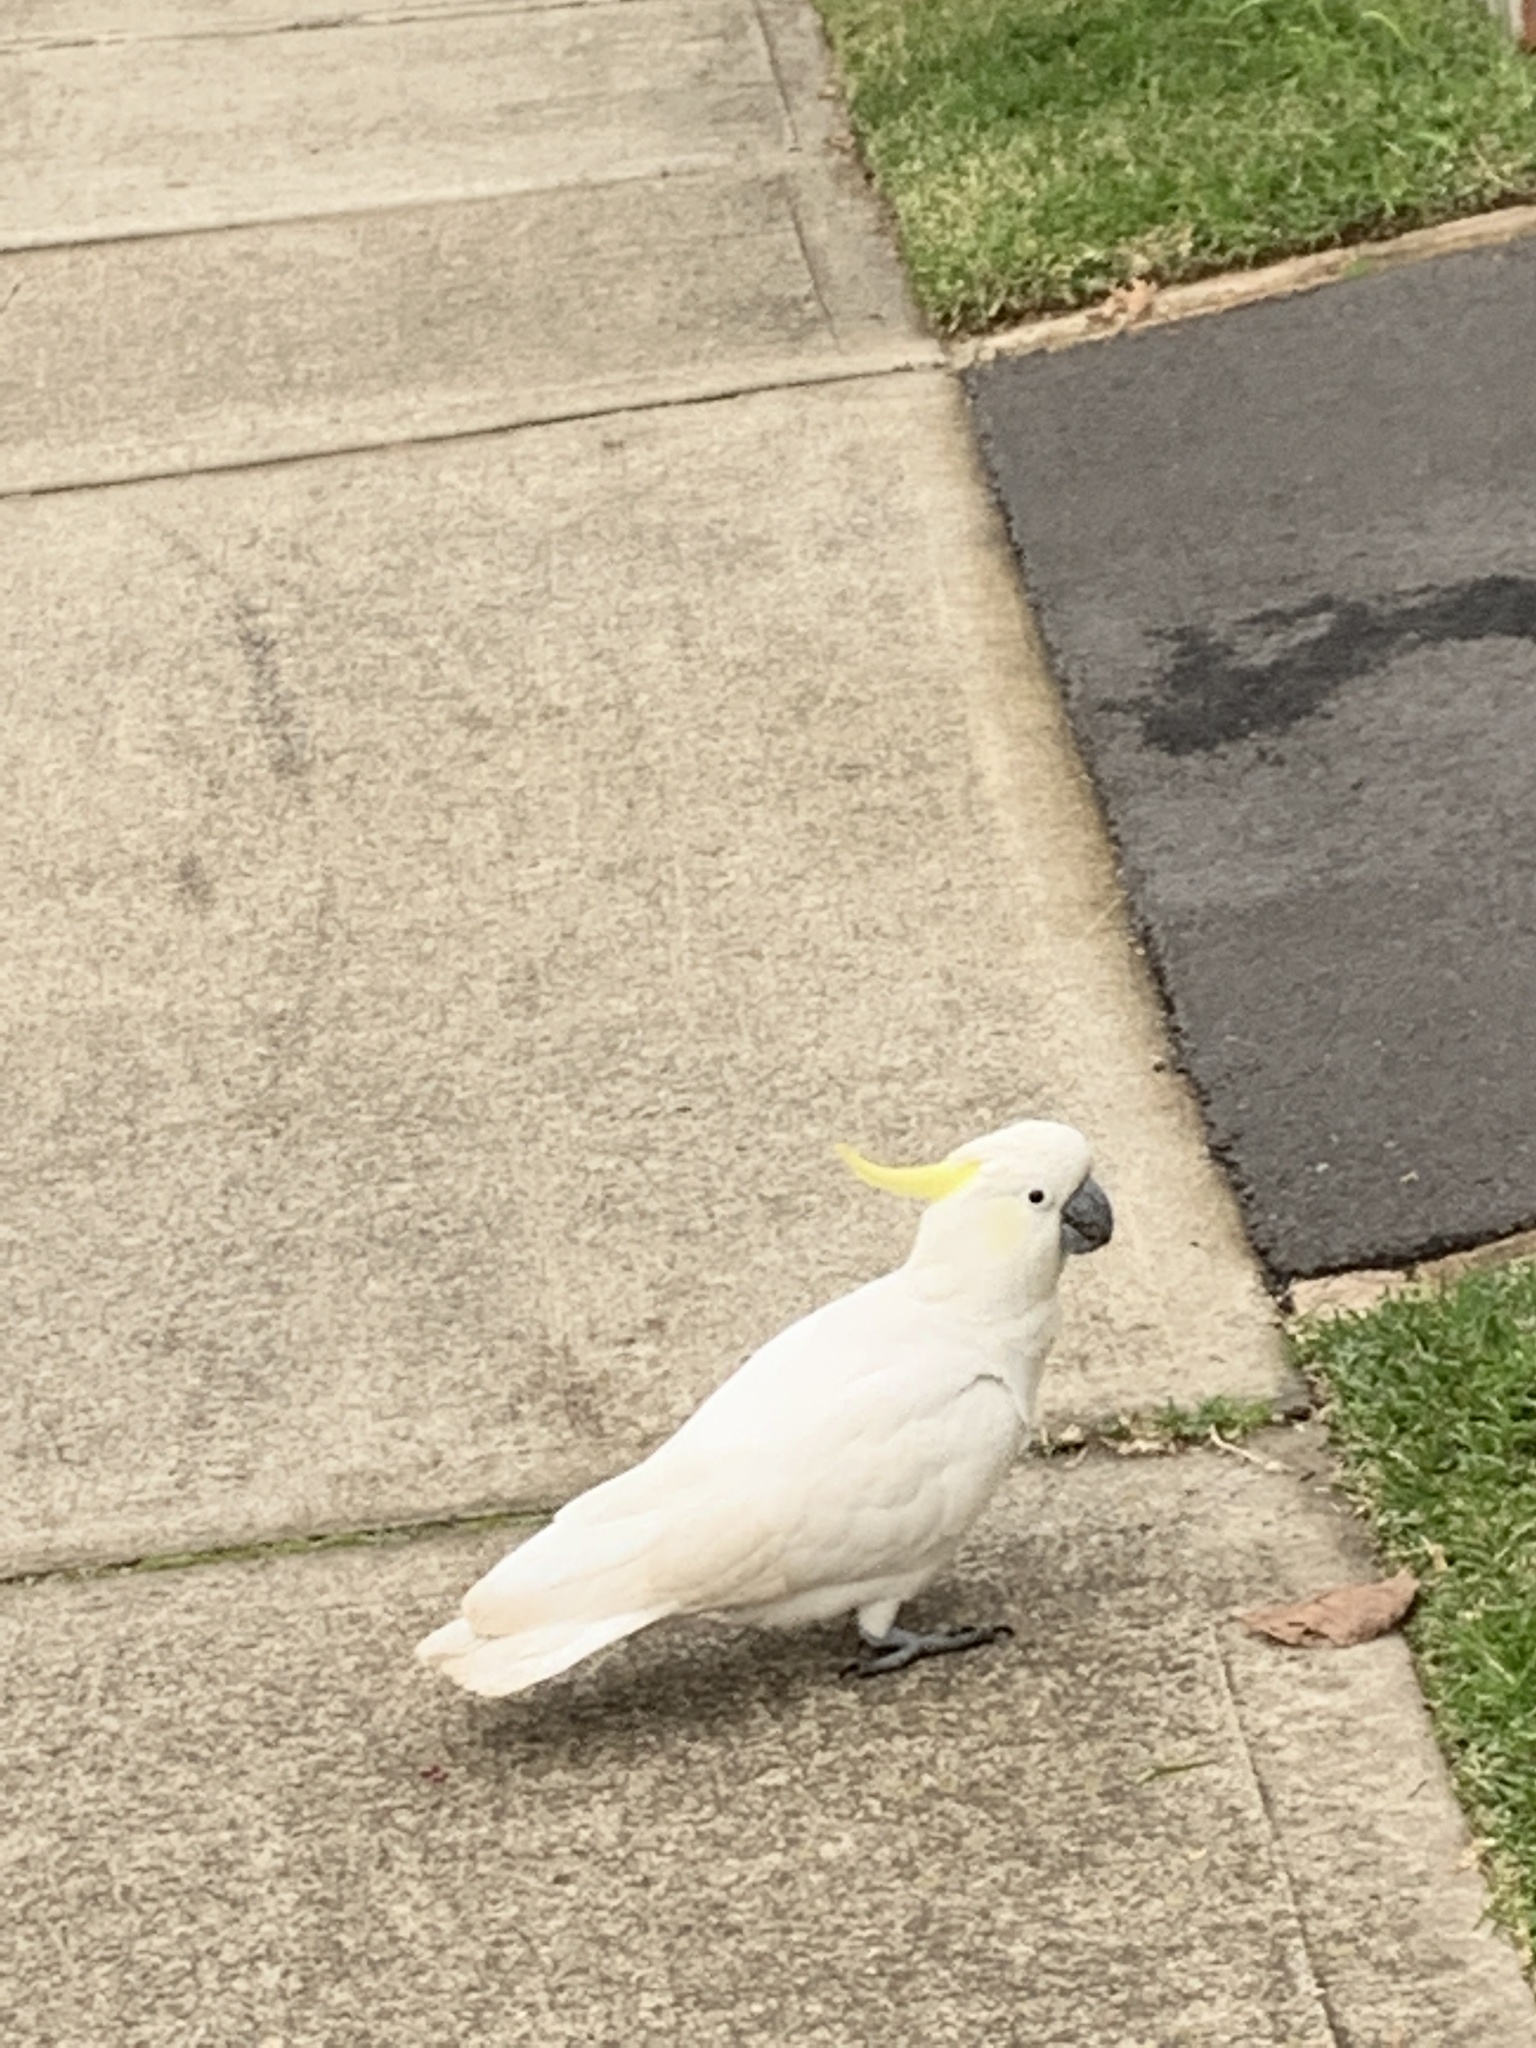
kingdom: Animalia
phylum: Chordata
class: Aves
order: Psittaciformes
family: Psittacidae
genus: Cacatua
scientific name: Cacatua galerita
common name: Sulphur-crested cockatoo
